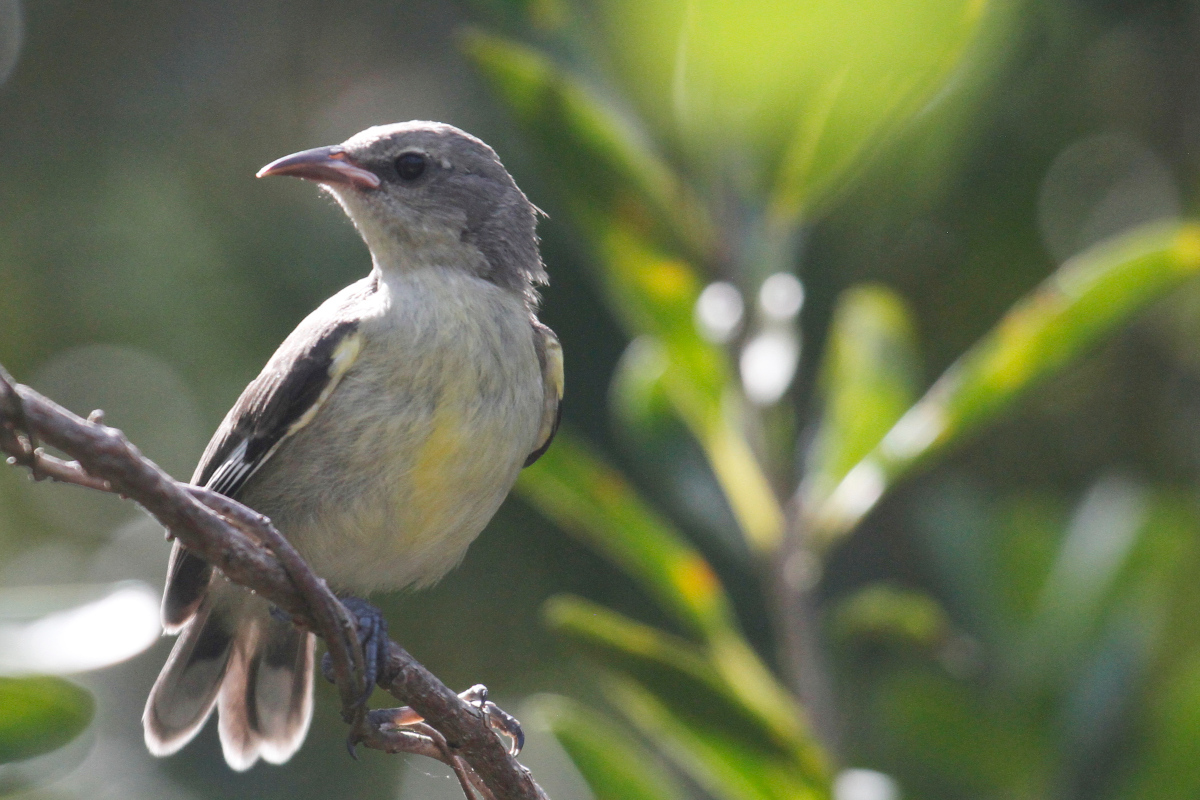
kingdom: Animalia
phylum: Chordata
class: Aves
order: Passeriformes
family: Thraupidae
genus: Coereba
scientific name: Coereba flaveola
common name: Bananaquit
